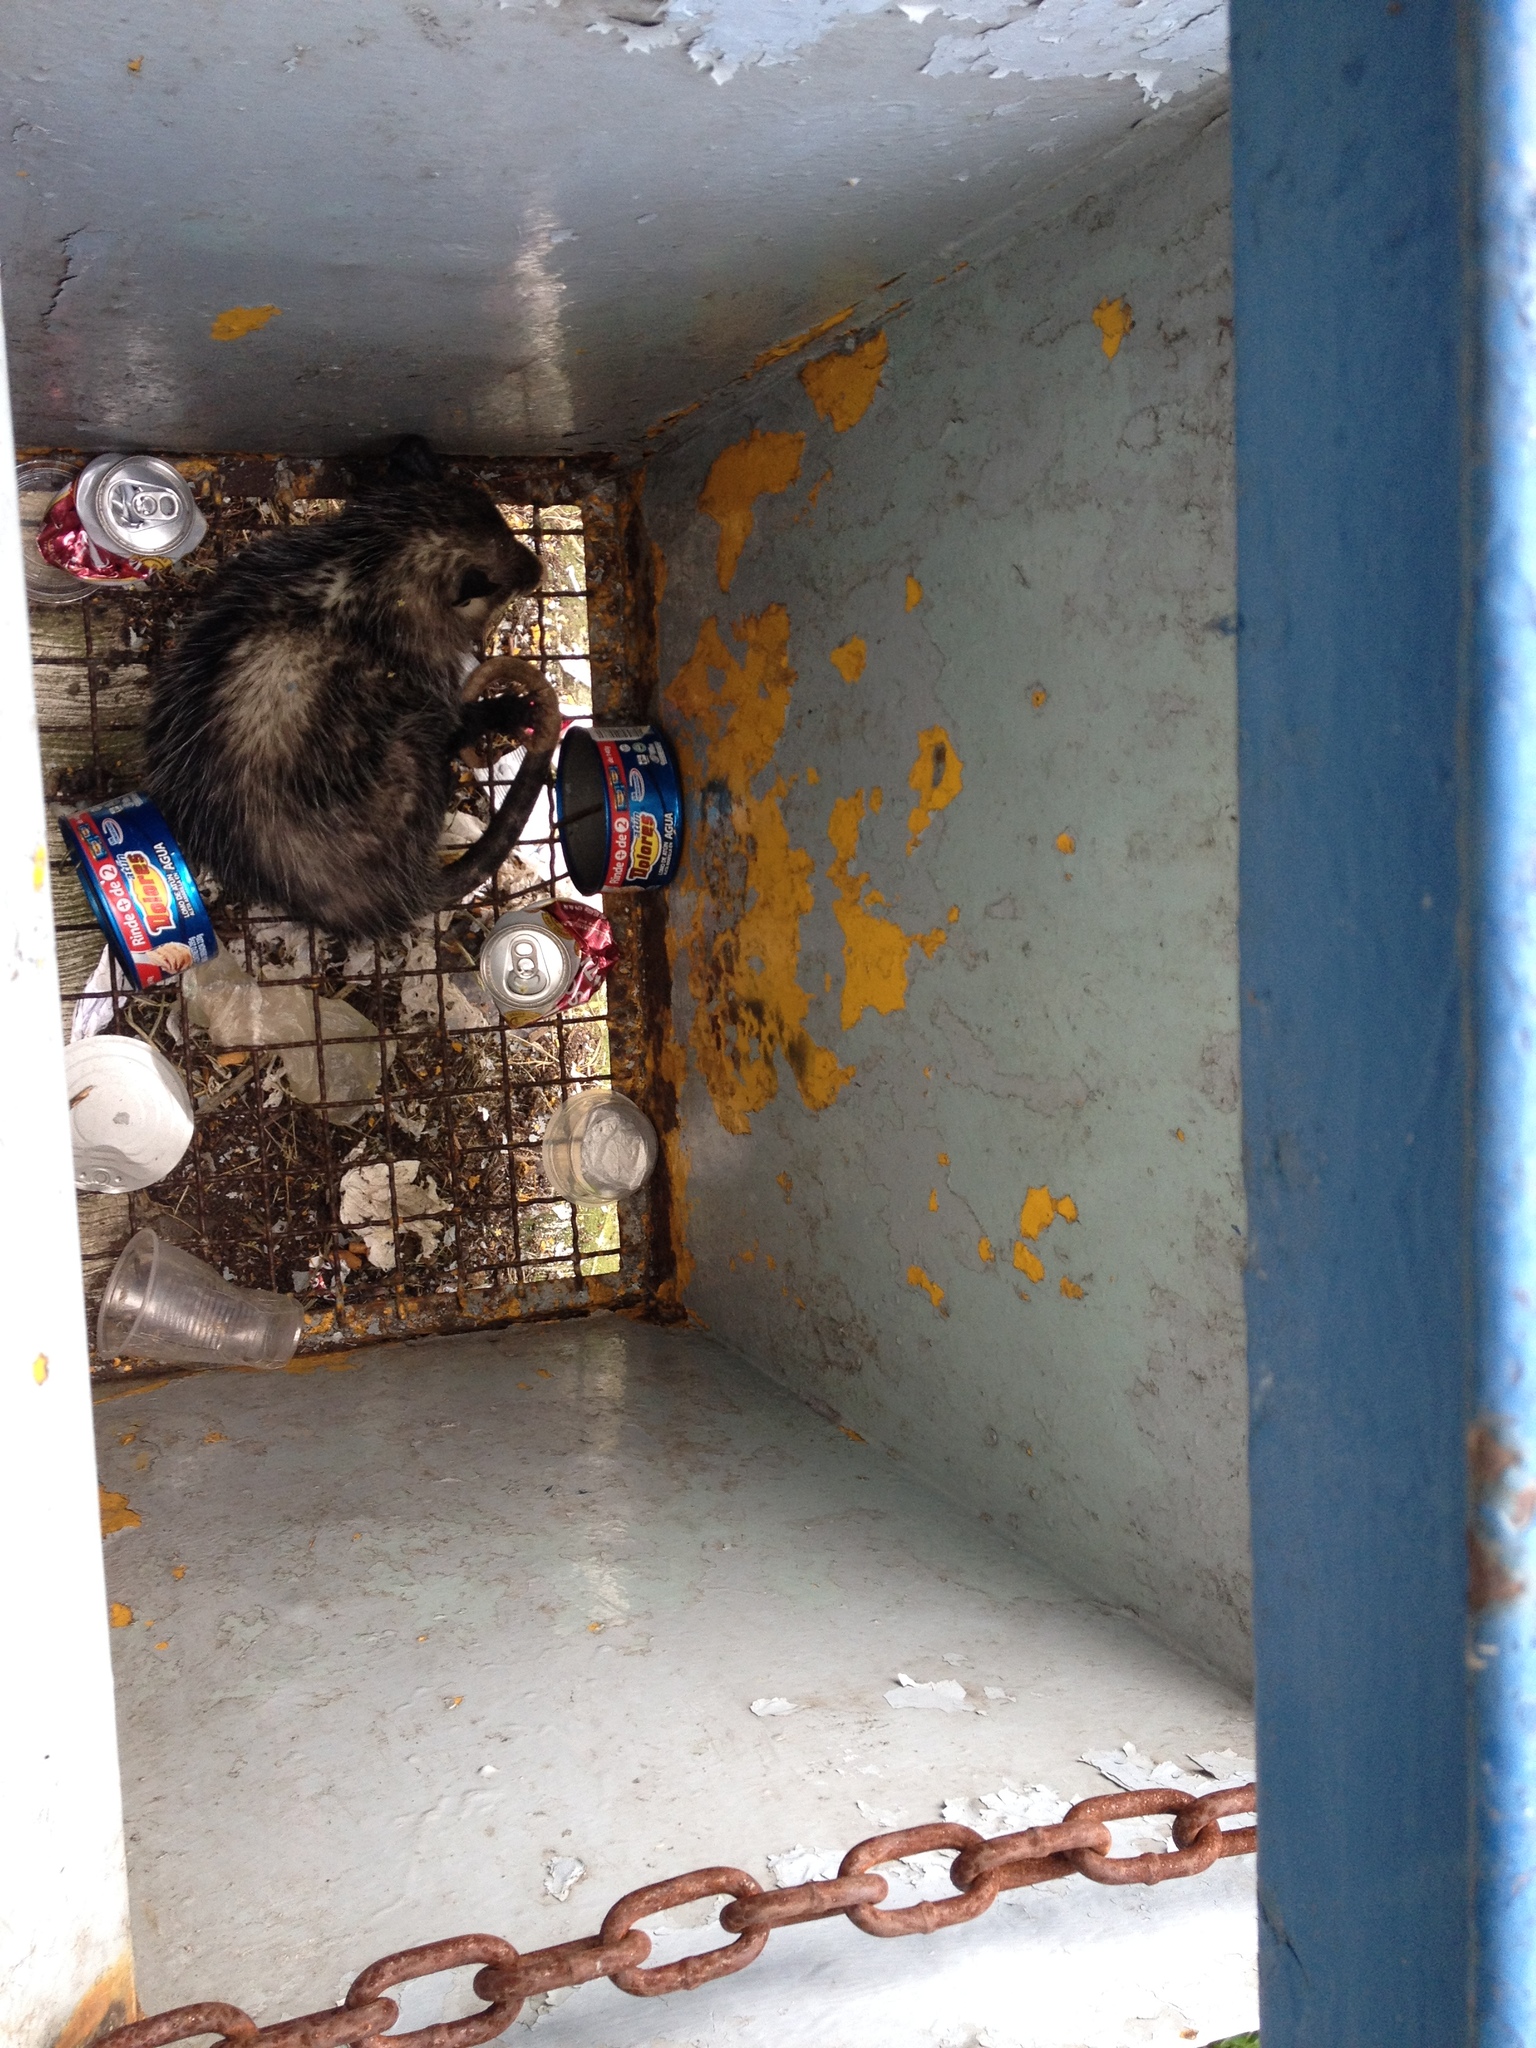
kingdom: Animalia
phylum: Chordata
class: Mammalia
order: Didelphimorphia
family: Didelphidae
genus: Didelphis
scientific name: Didelphis virginiana
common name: Virginia opossum
